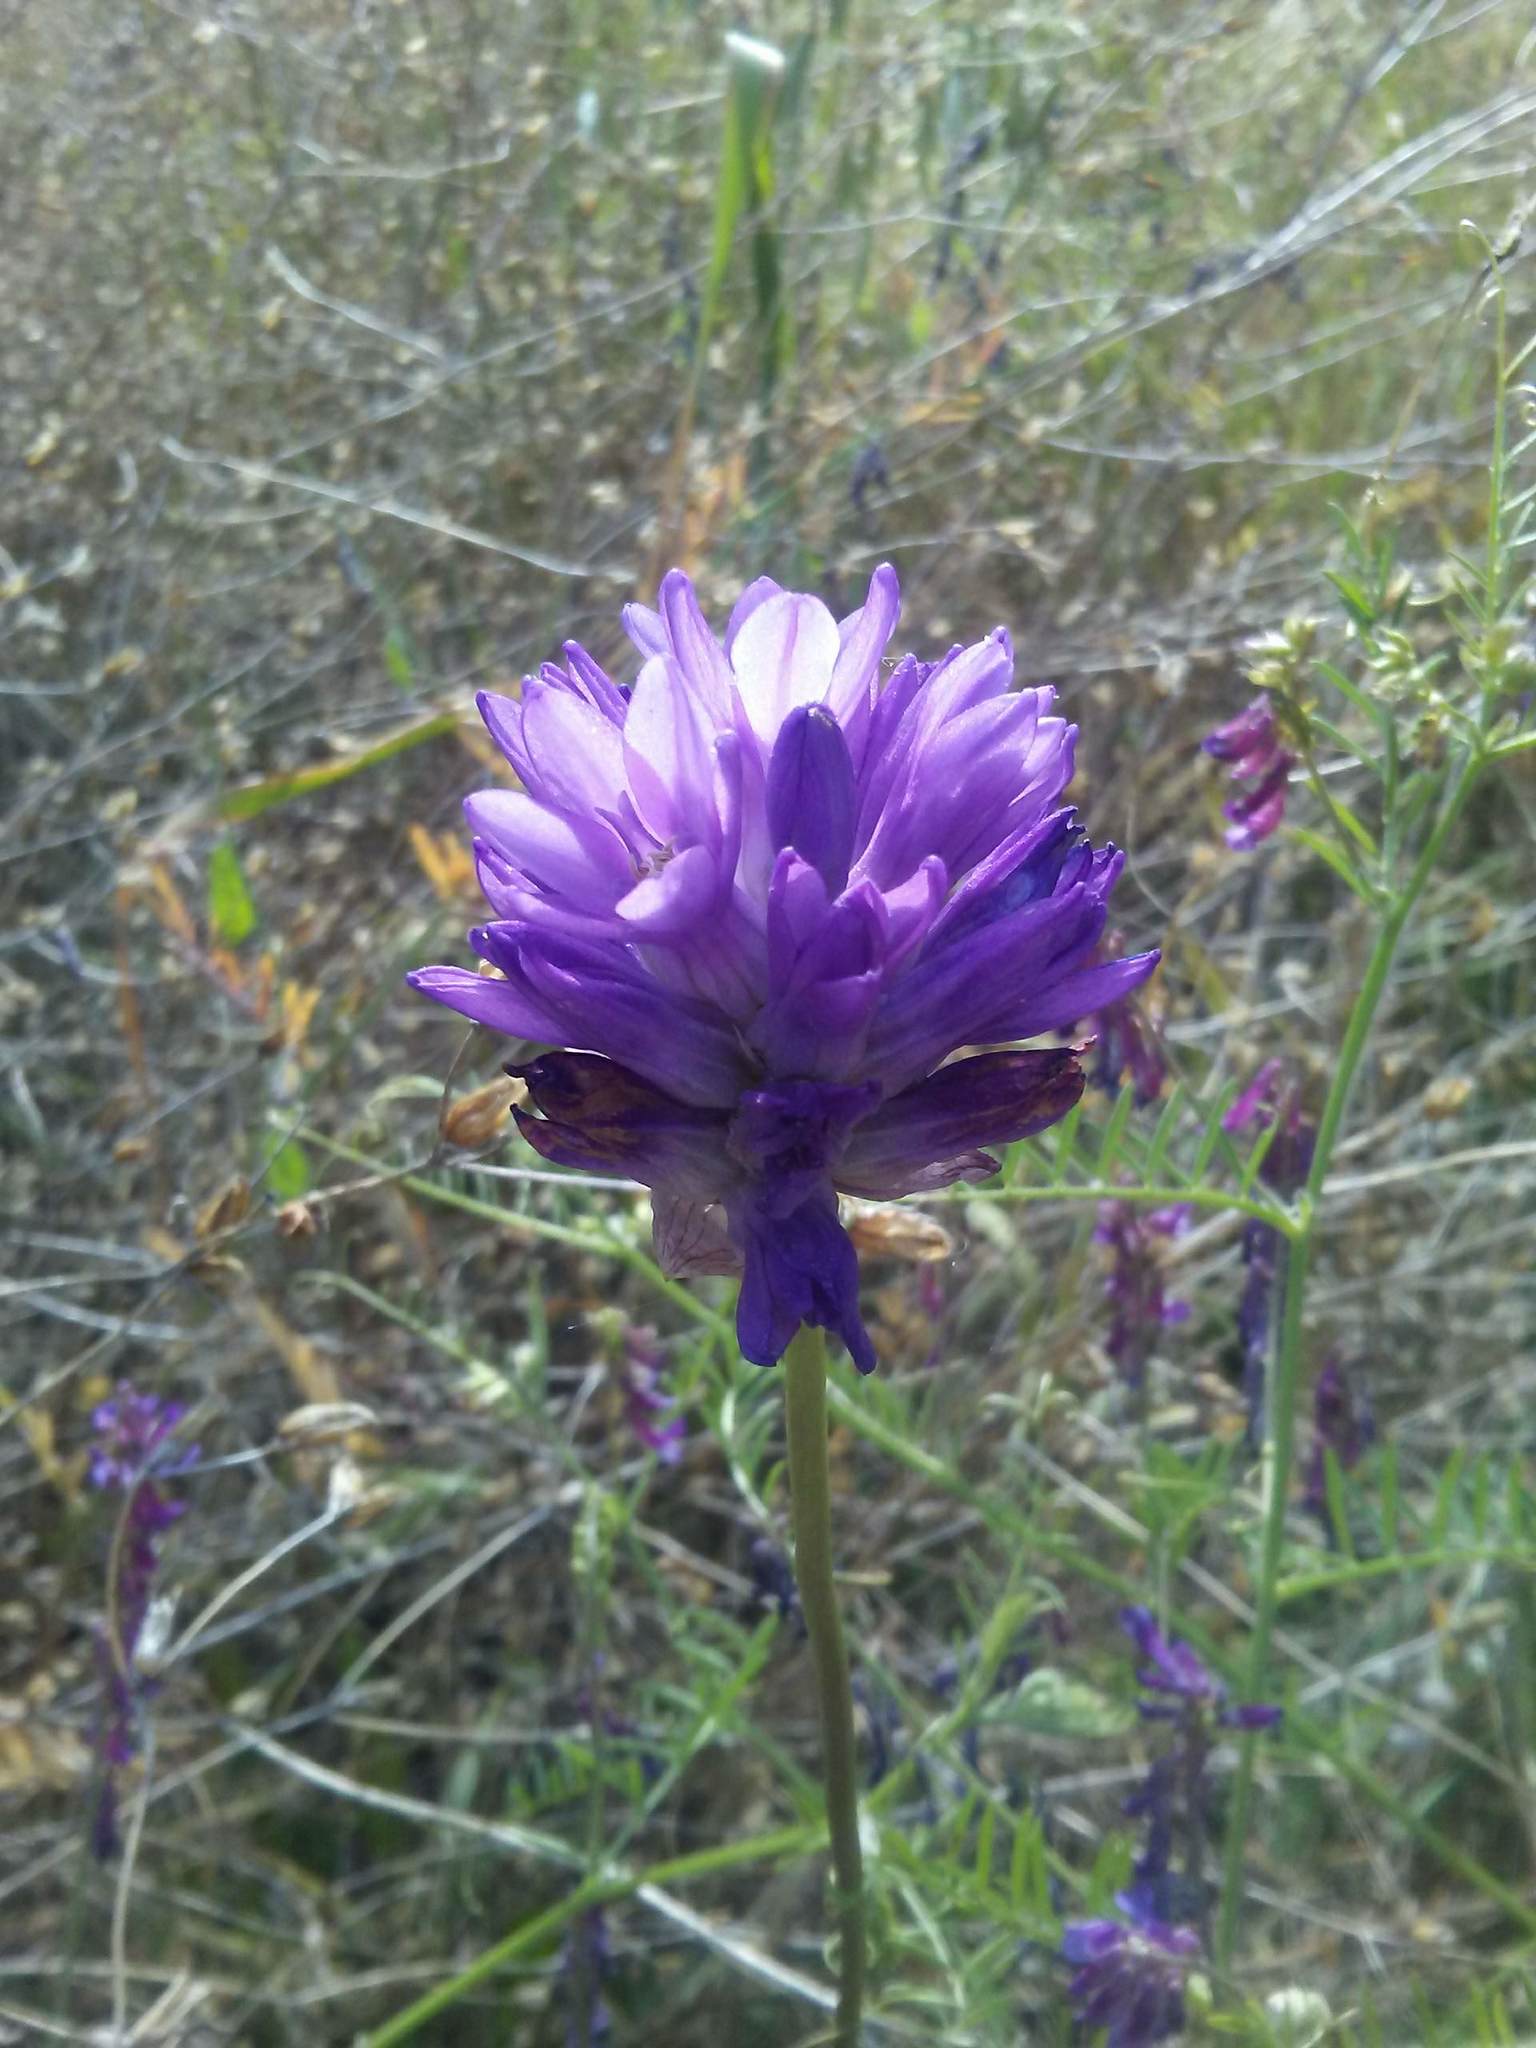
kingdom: Plantae
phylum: Tracheophyta
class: Liliopsida
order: Asparagales
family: Asparagaceae
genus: Dichelostemma
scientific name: Dichelostemma congestum
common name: Fork-tooth ookow
